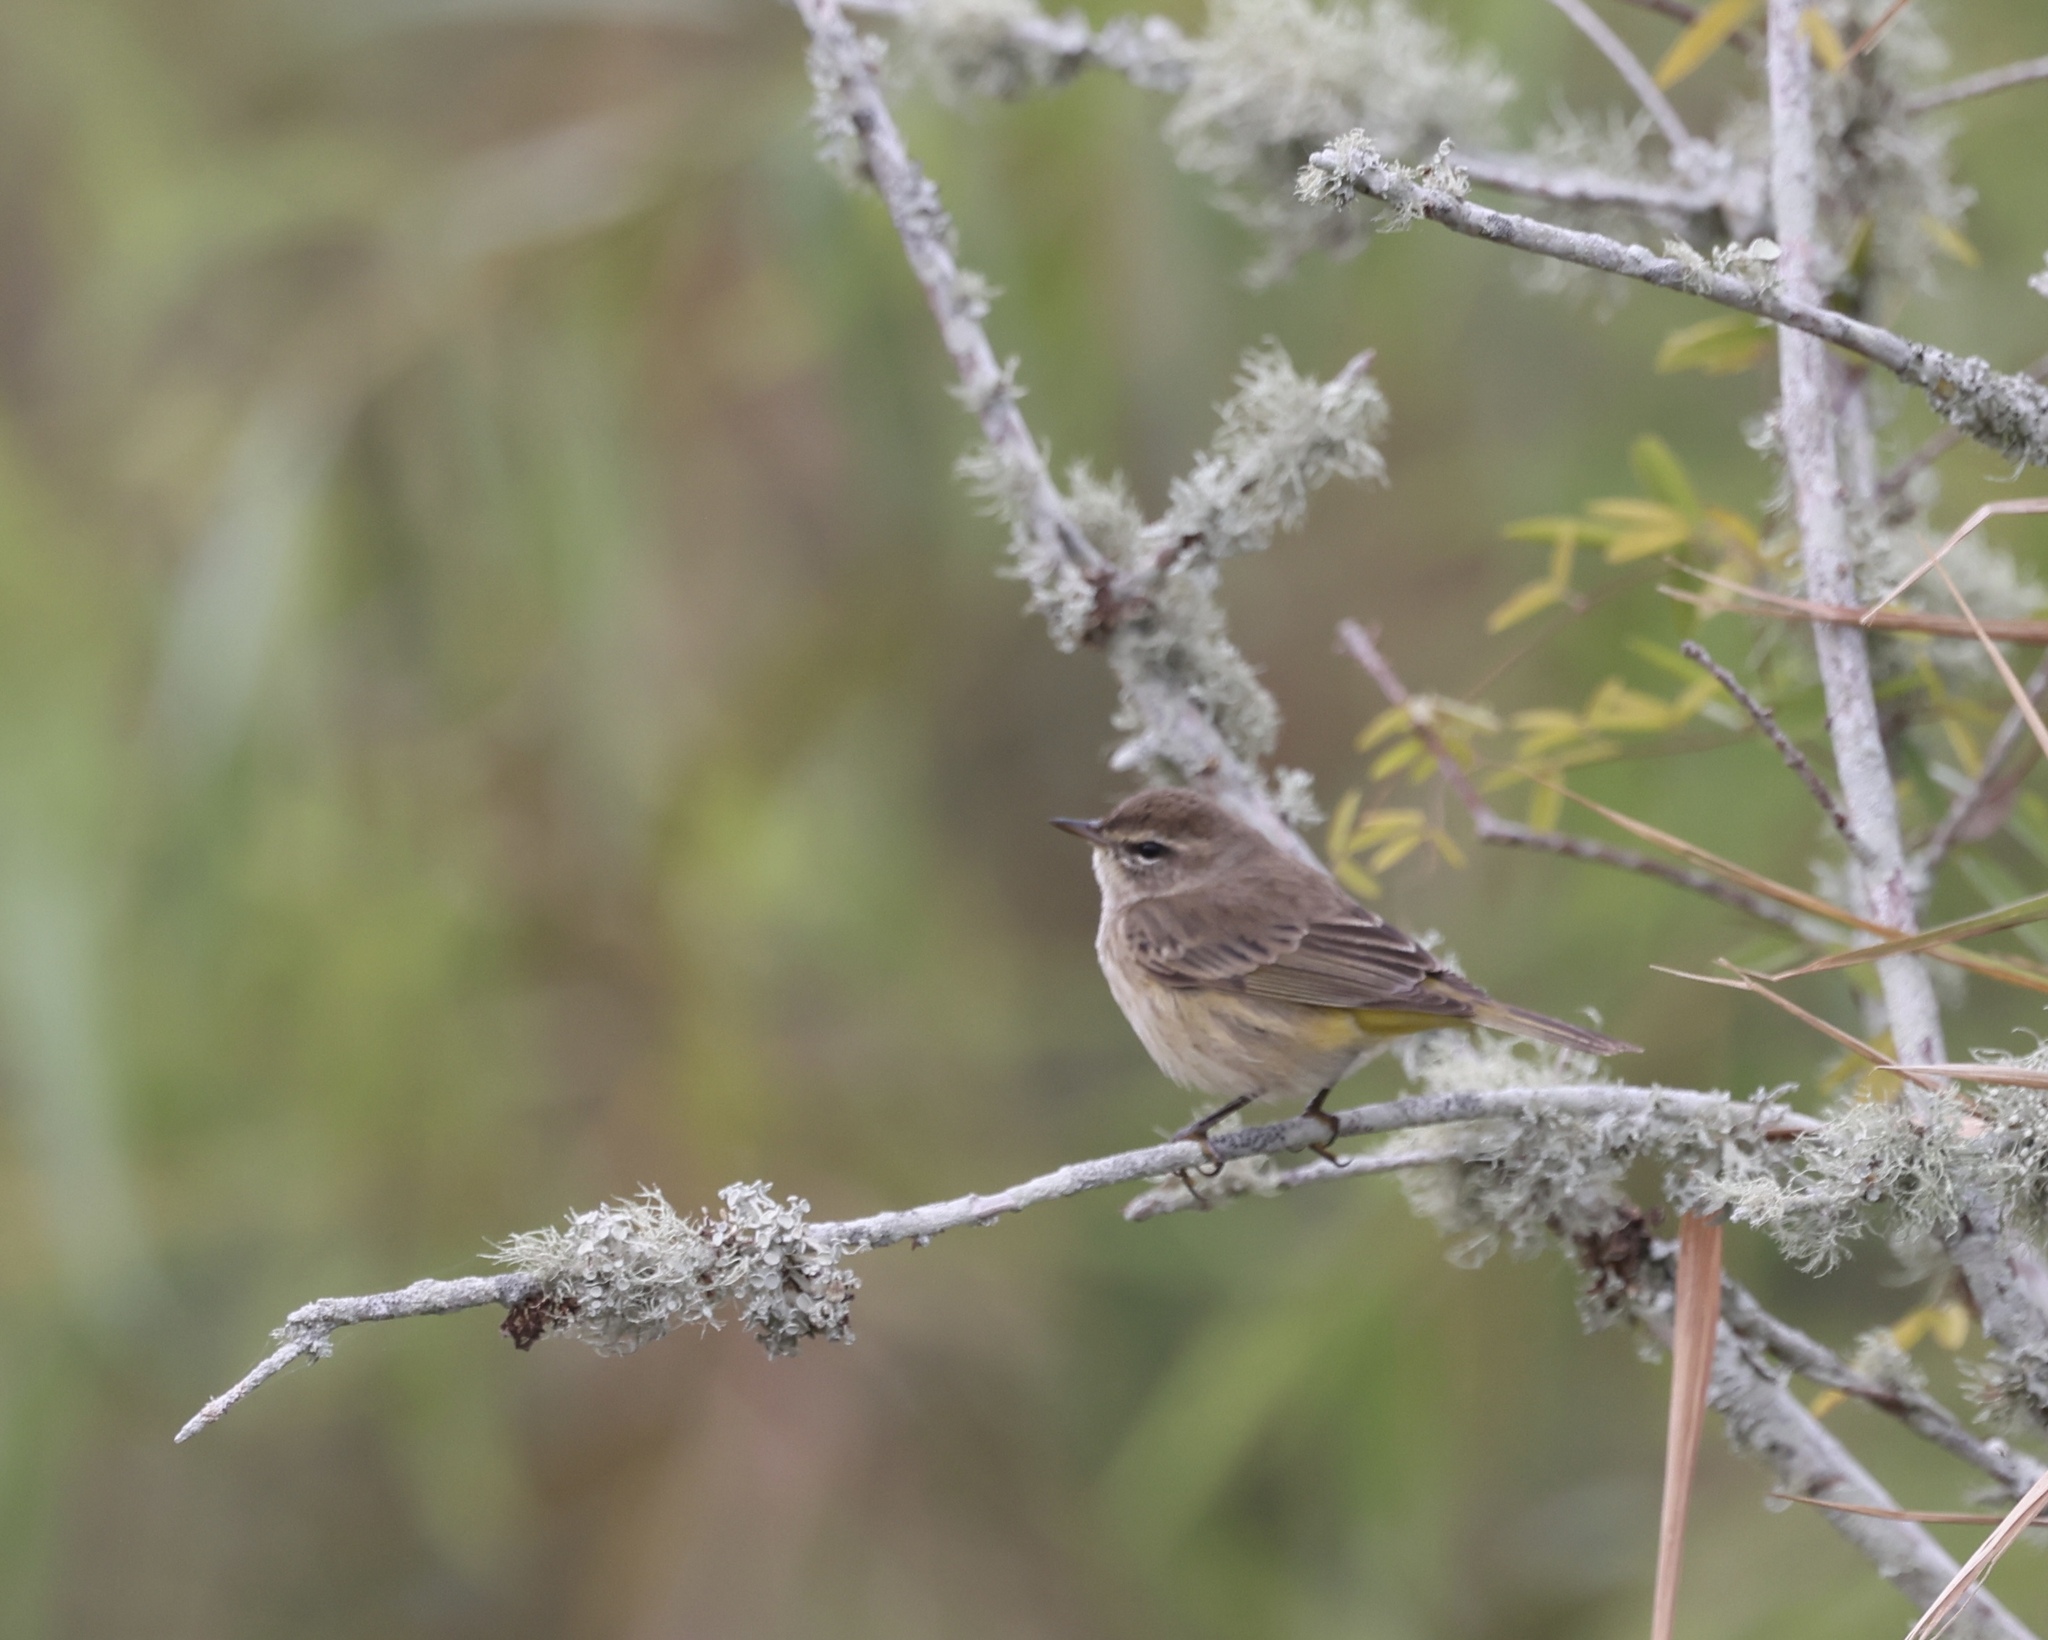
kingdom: Animalia
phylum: Chordata
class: Aves
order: Passeriformes
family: Parulidae
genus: Setophaga
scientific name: Setophaga palmarum
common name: Palm warbler
